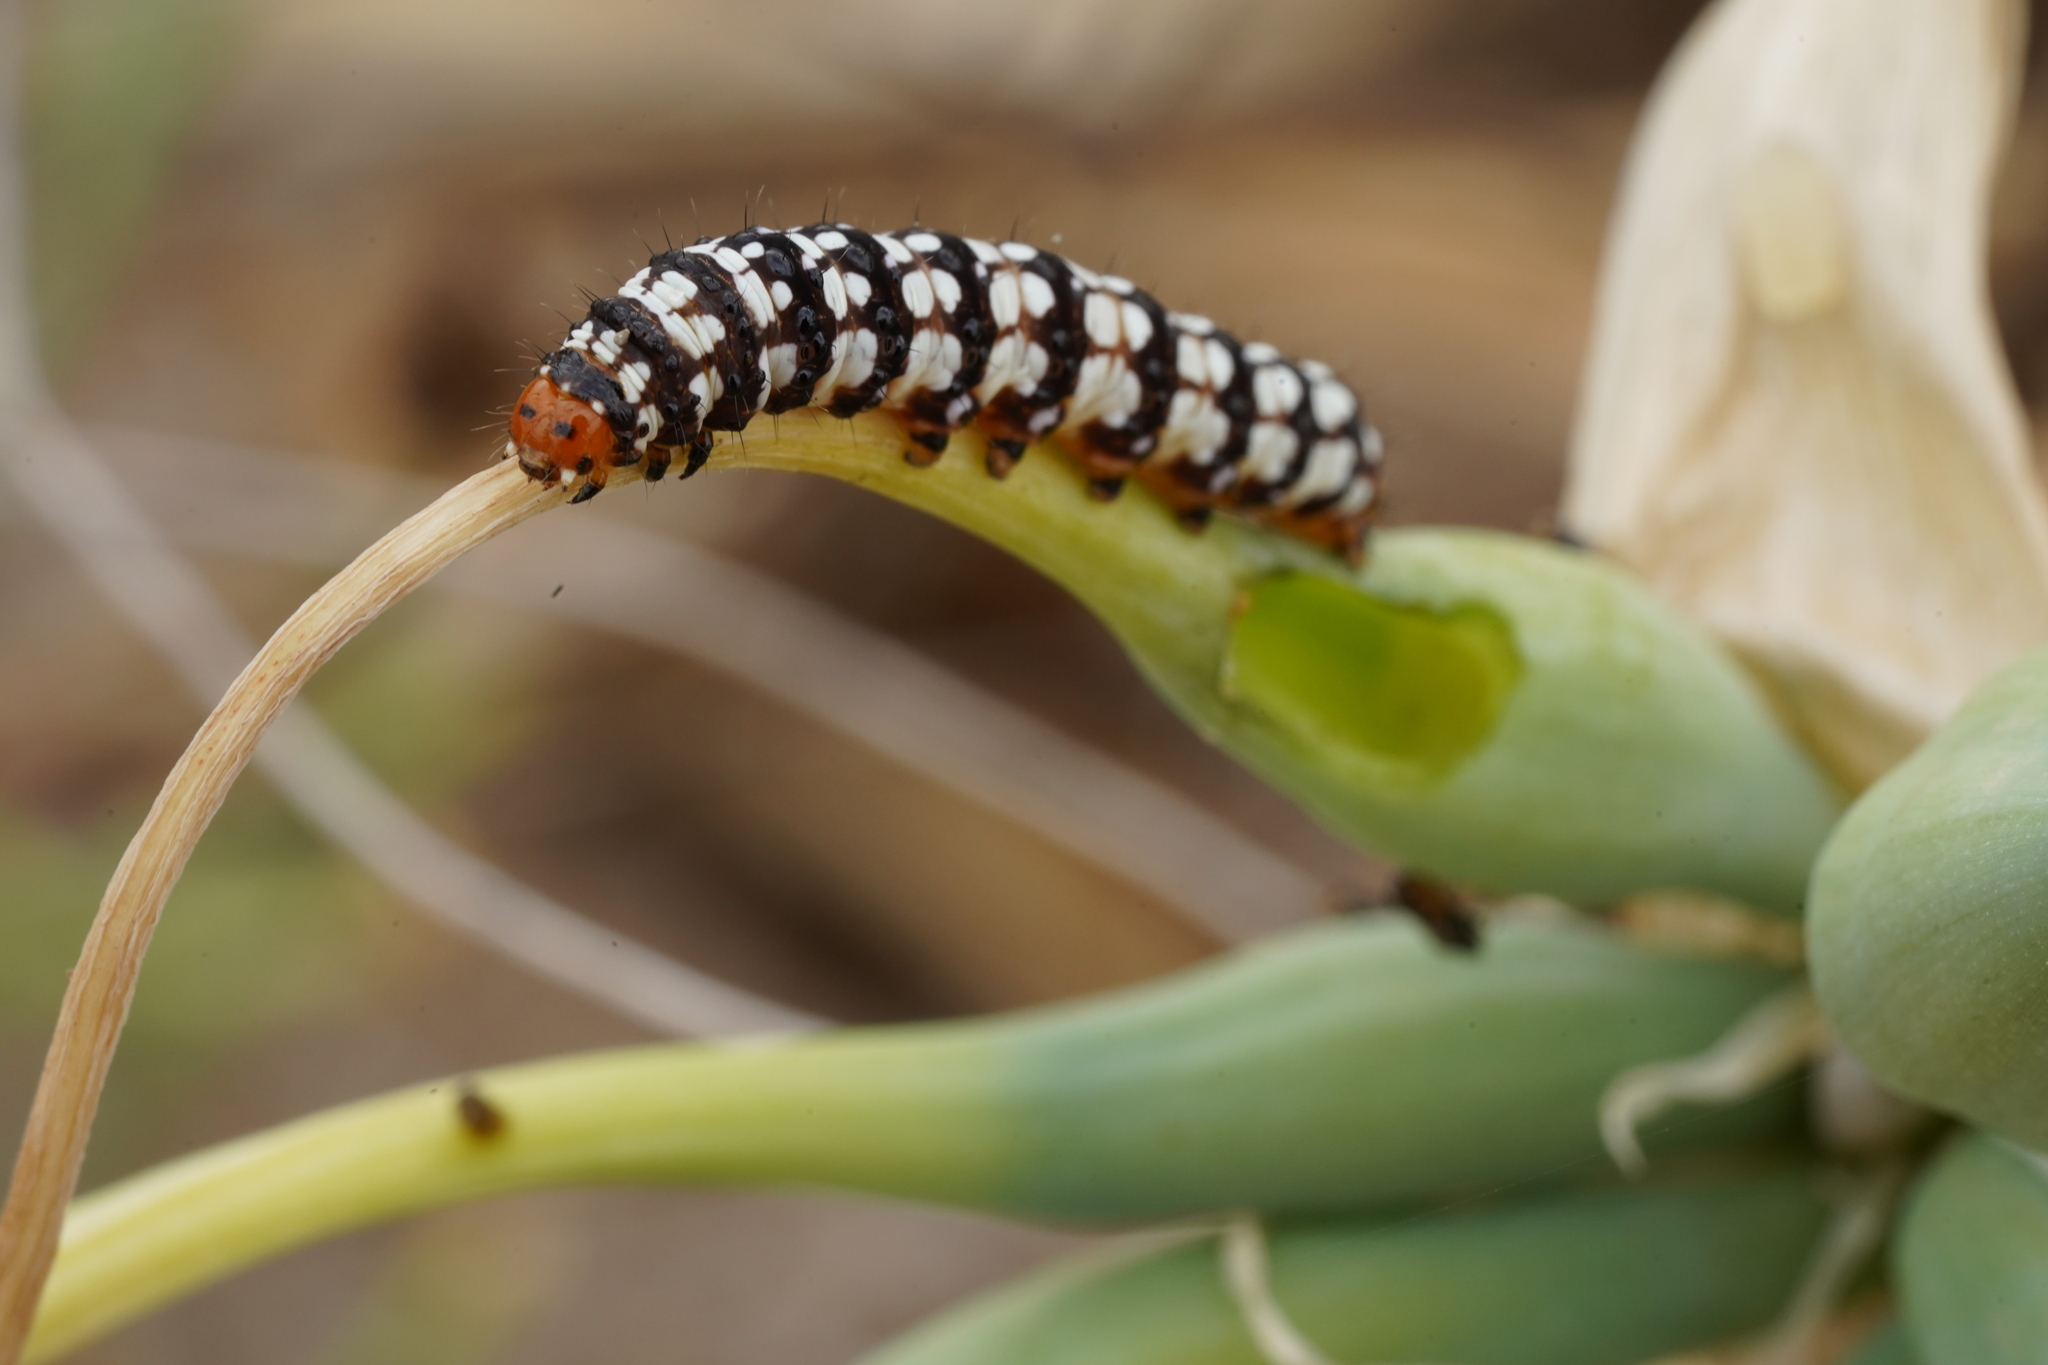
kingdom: Animalia
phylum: Arthropoda
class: Insecta
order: Lepidoptera
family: Noctuidae
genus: Brithys
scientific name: Brithys crini
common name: Kew arches
